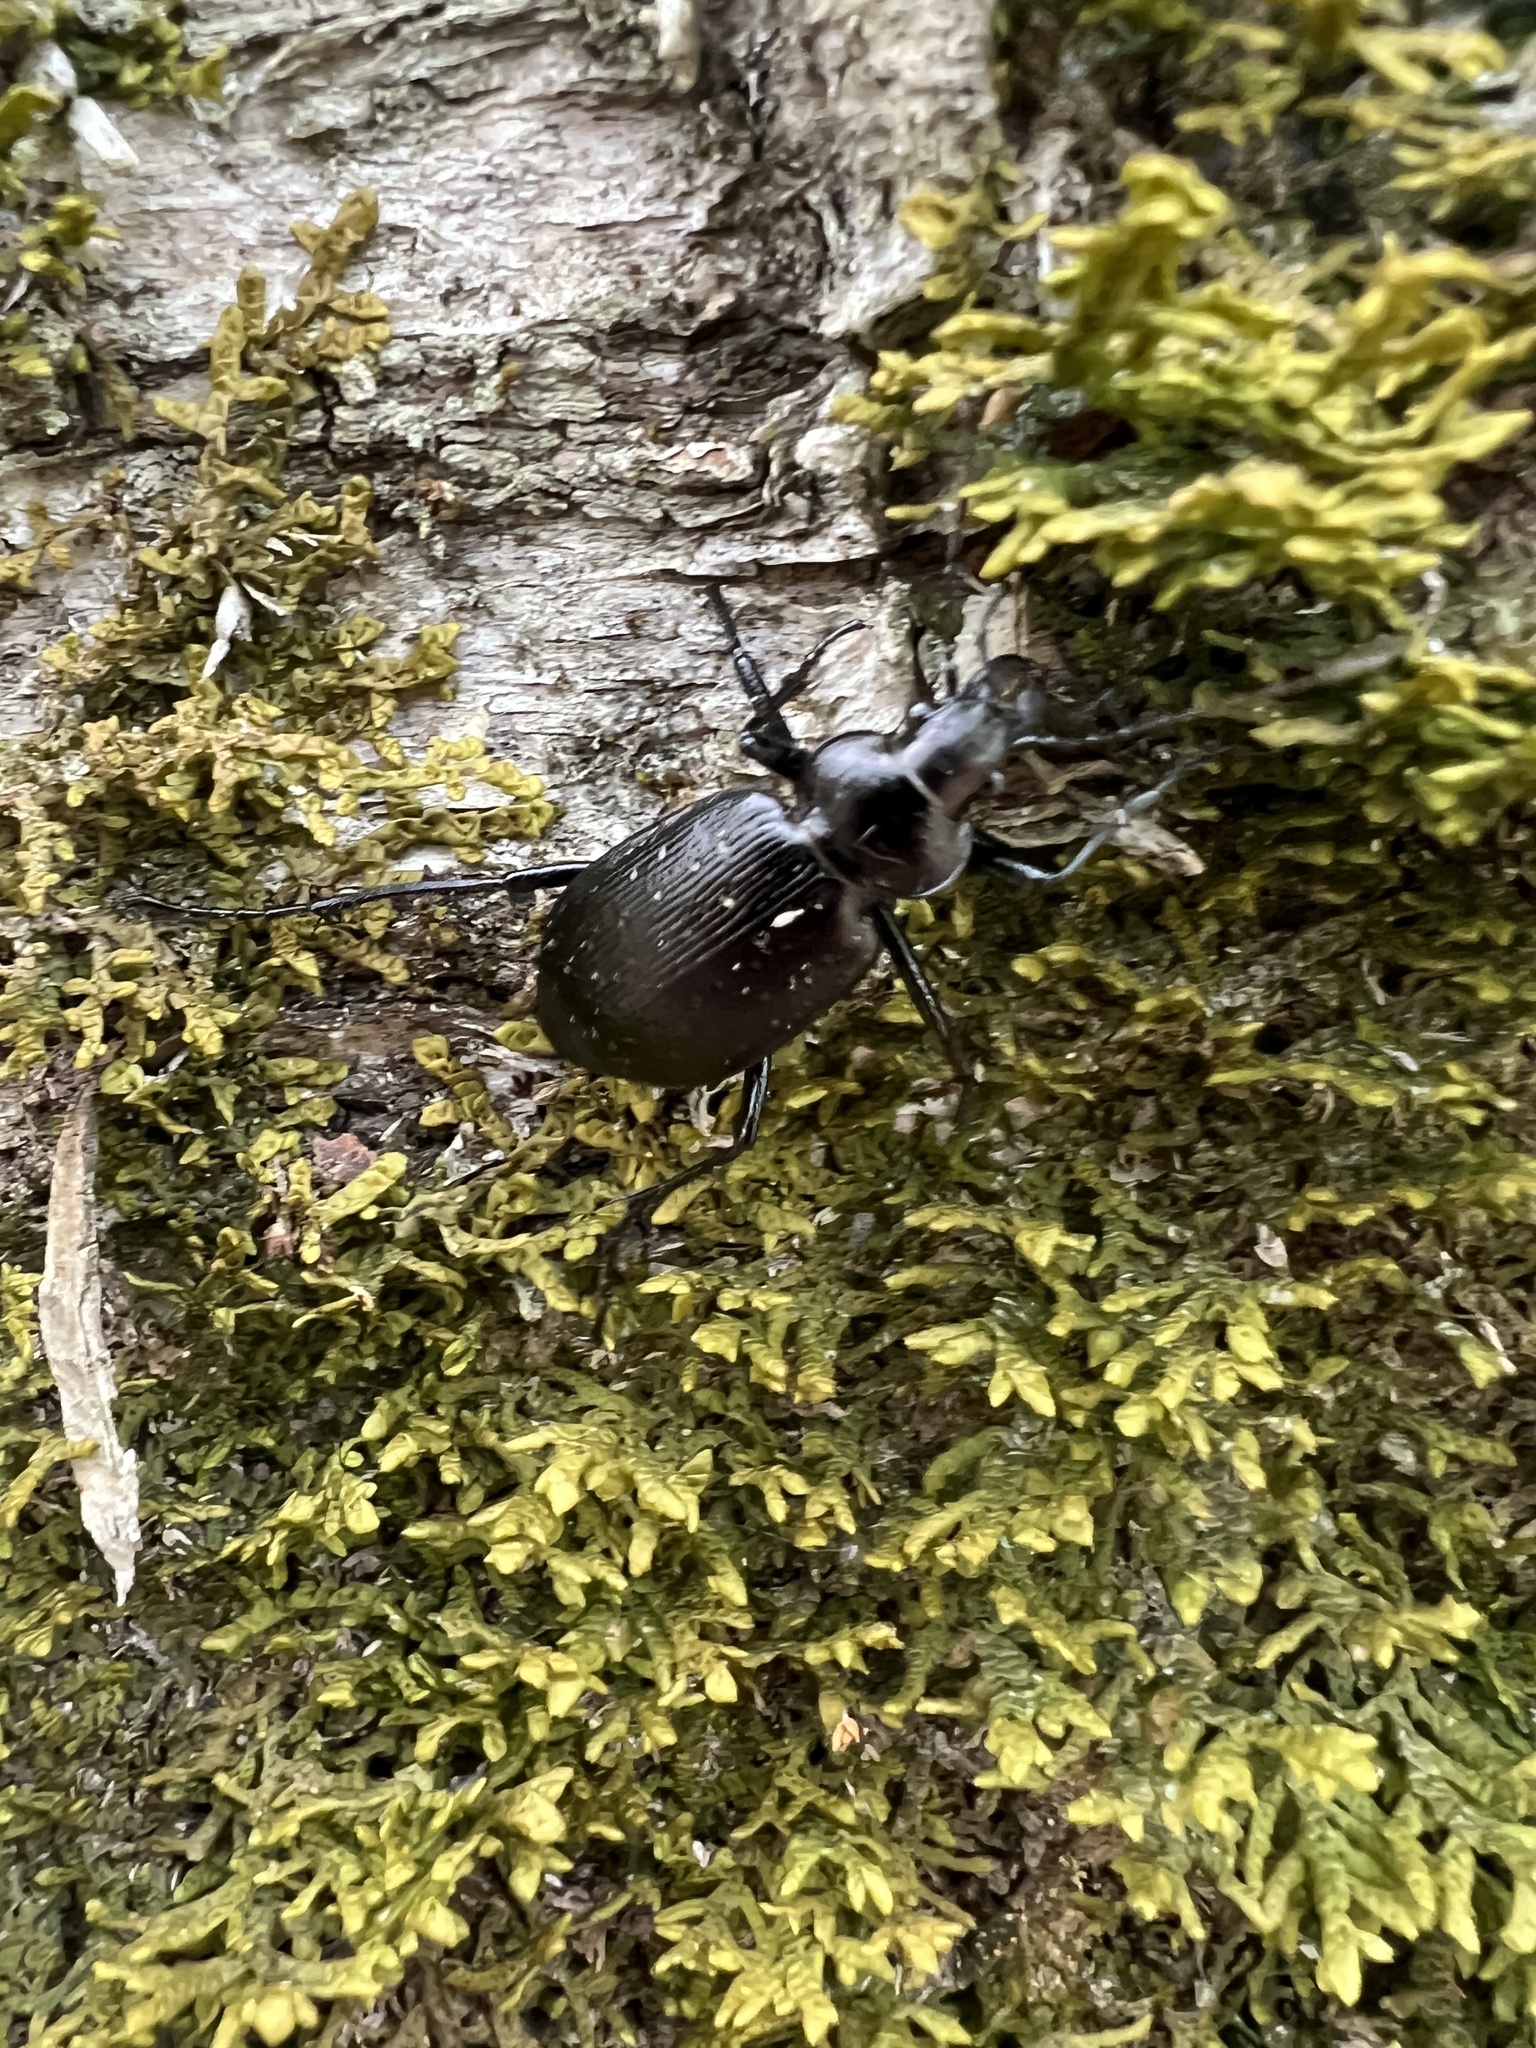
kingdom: Animalia
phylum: Arthropoda
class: Insecta
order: Coleoptera
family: Carabidae
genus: Calosoma
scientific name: Calosoma frigidum
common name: Cold-country caterpillar hunter
